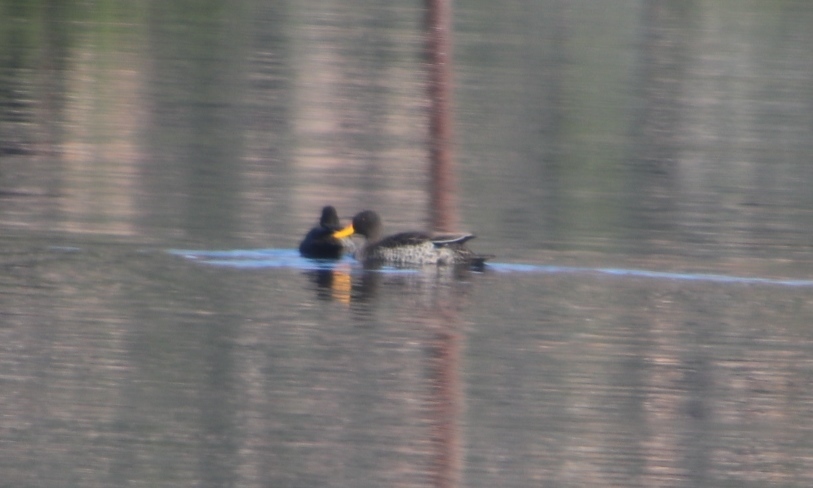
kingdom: Animalia
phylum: Chordata
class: Aves
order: Anseriformes
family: Anatidae
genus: Anas
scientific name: Anas undulata
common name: Yellow-billed duck
